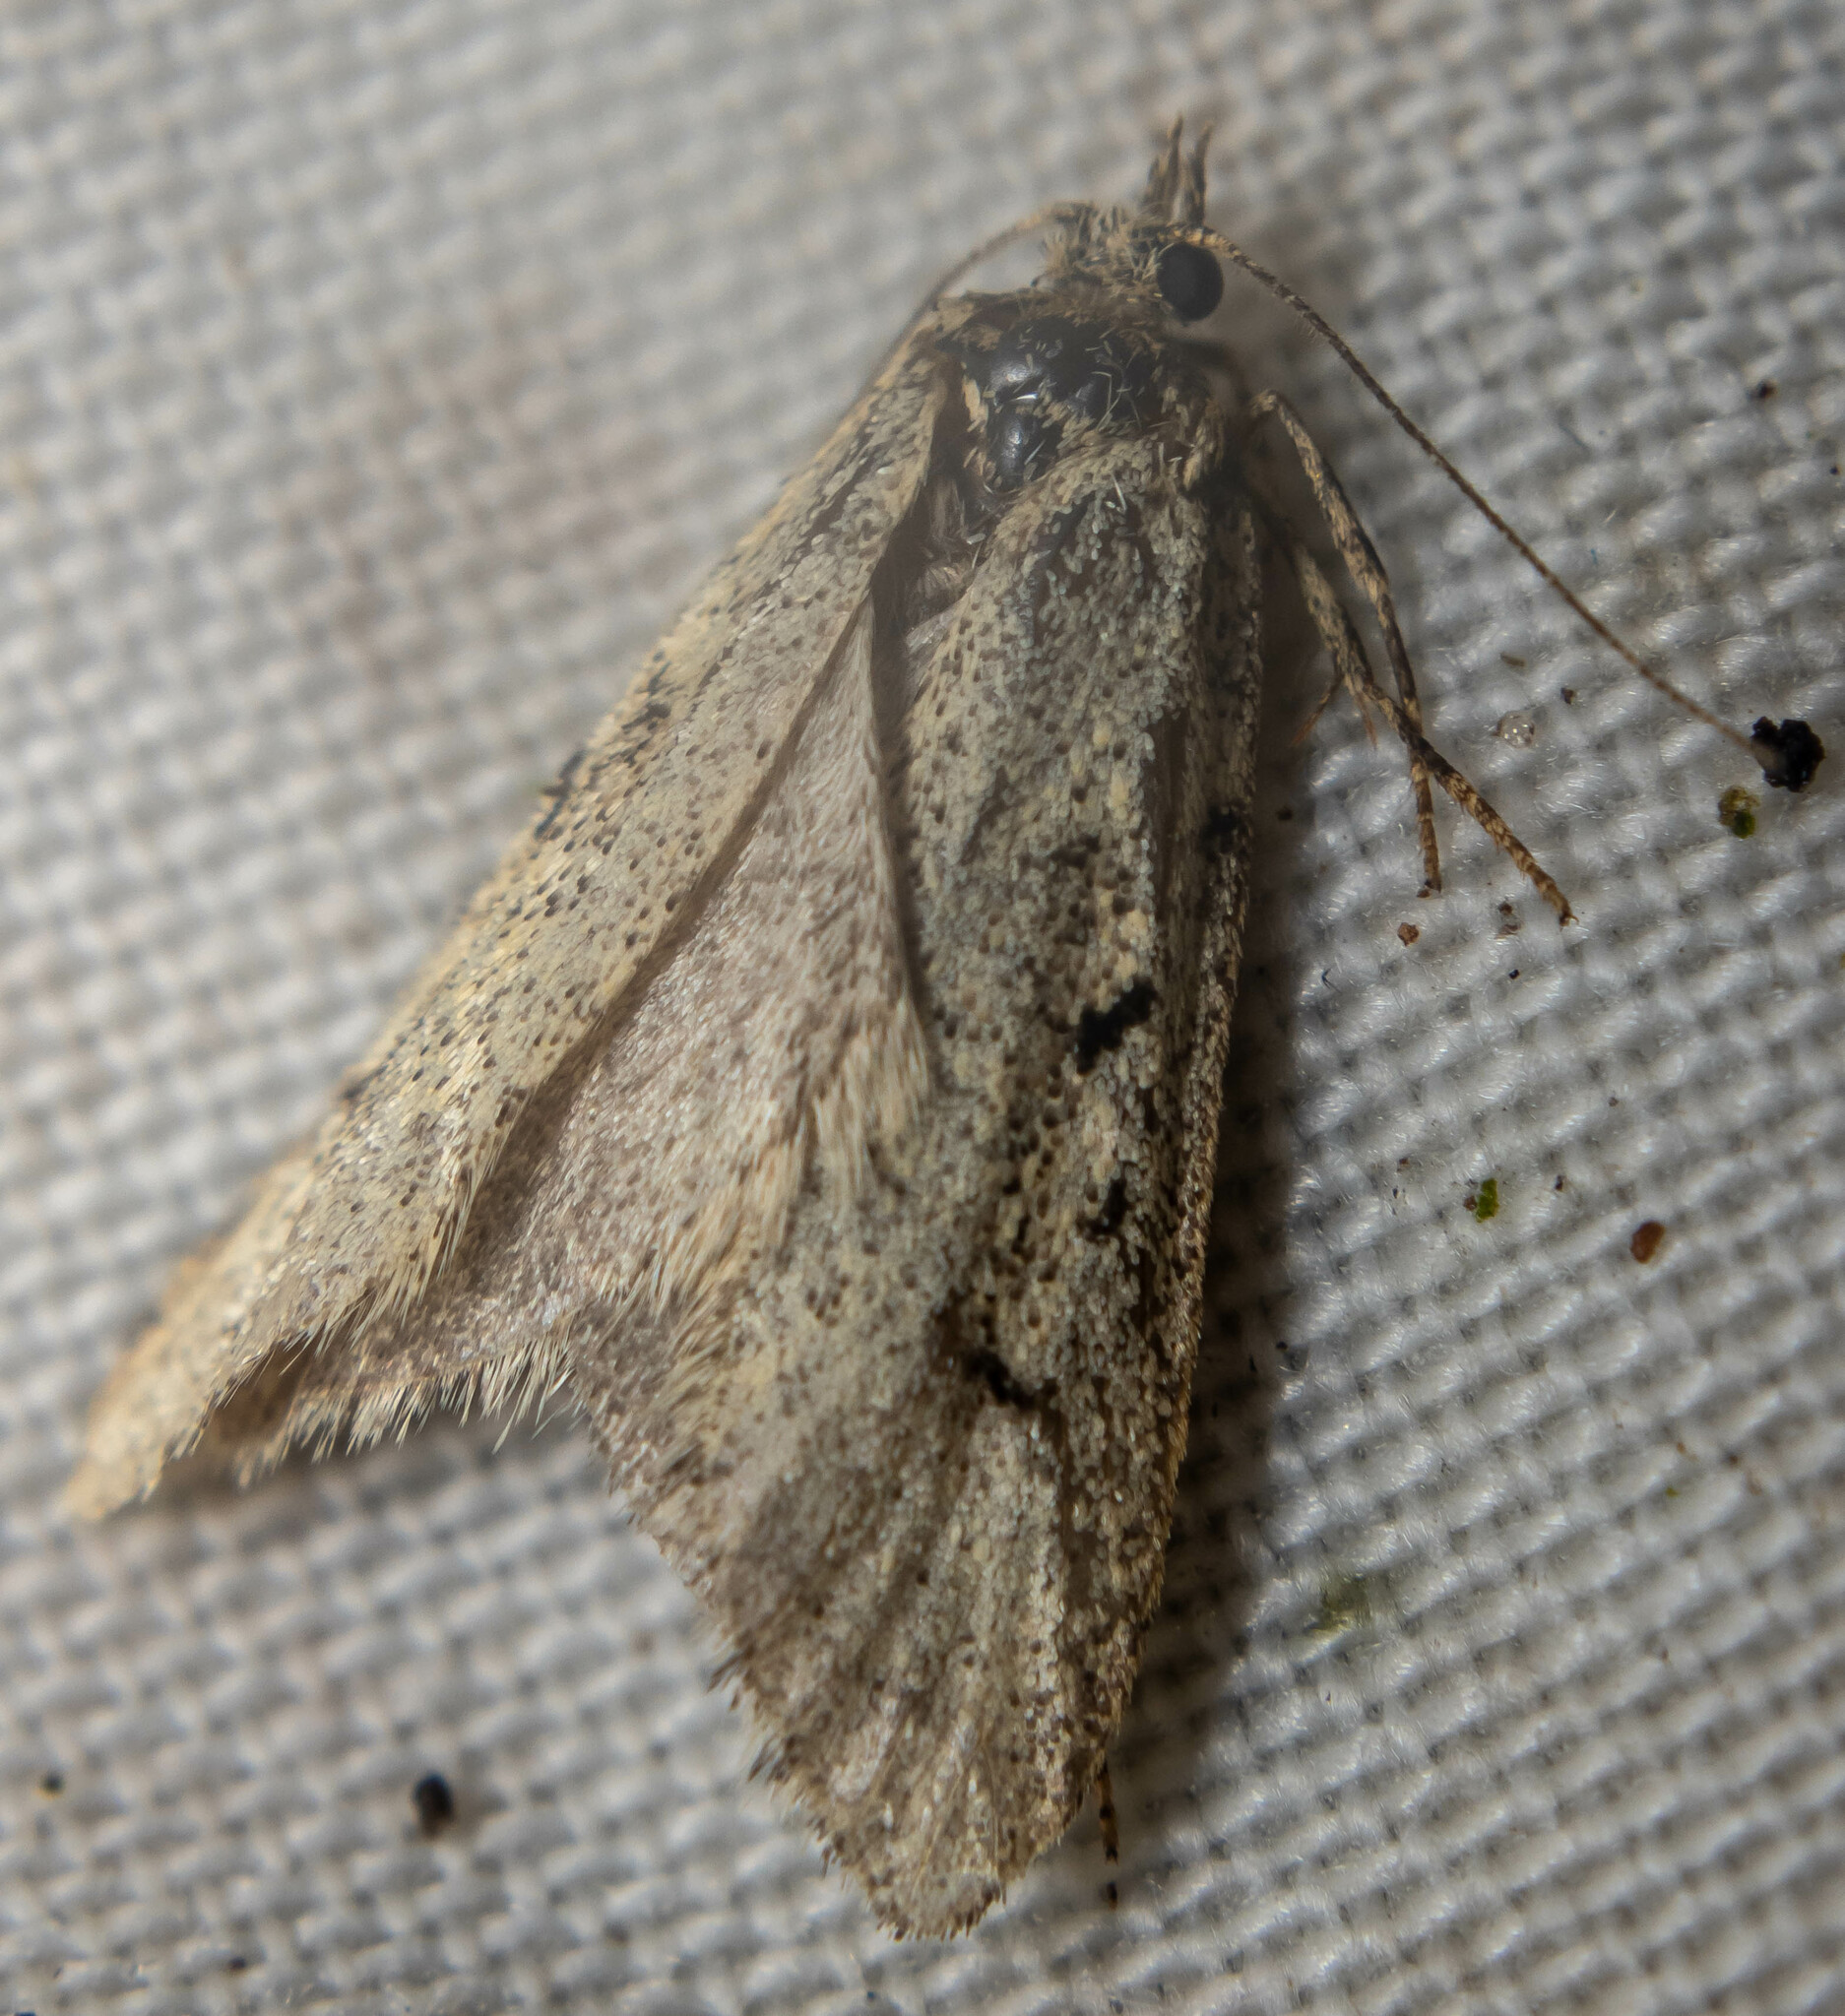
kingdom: Animalia
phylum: Arthropoda
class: Insecta
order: Lepidoptera
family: Lypusidae
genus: Diurnea
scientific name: Diurnea fagella
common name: March tubic
